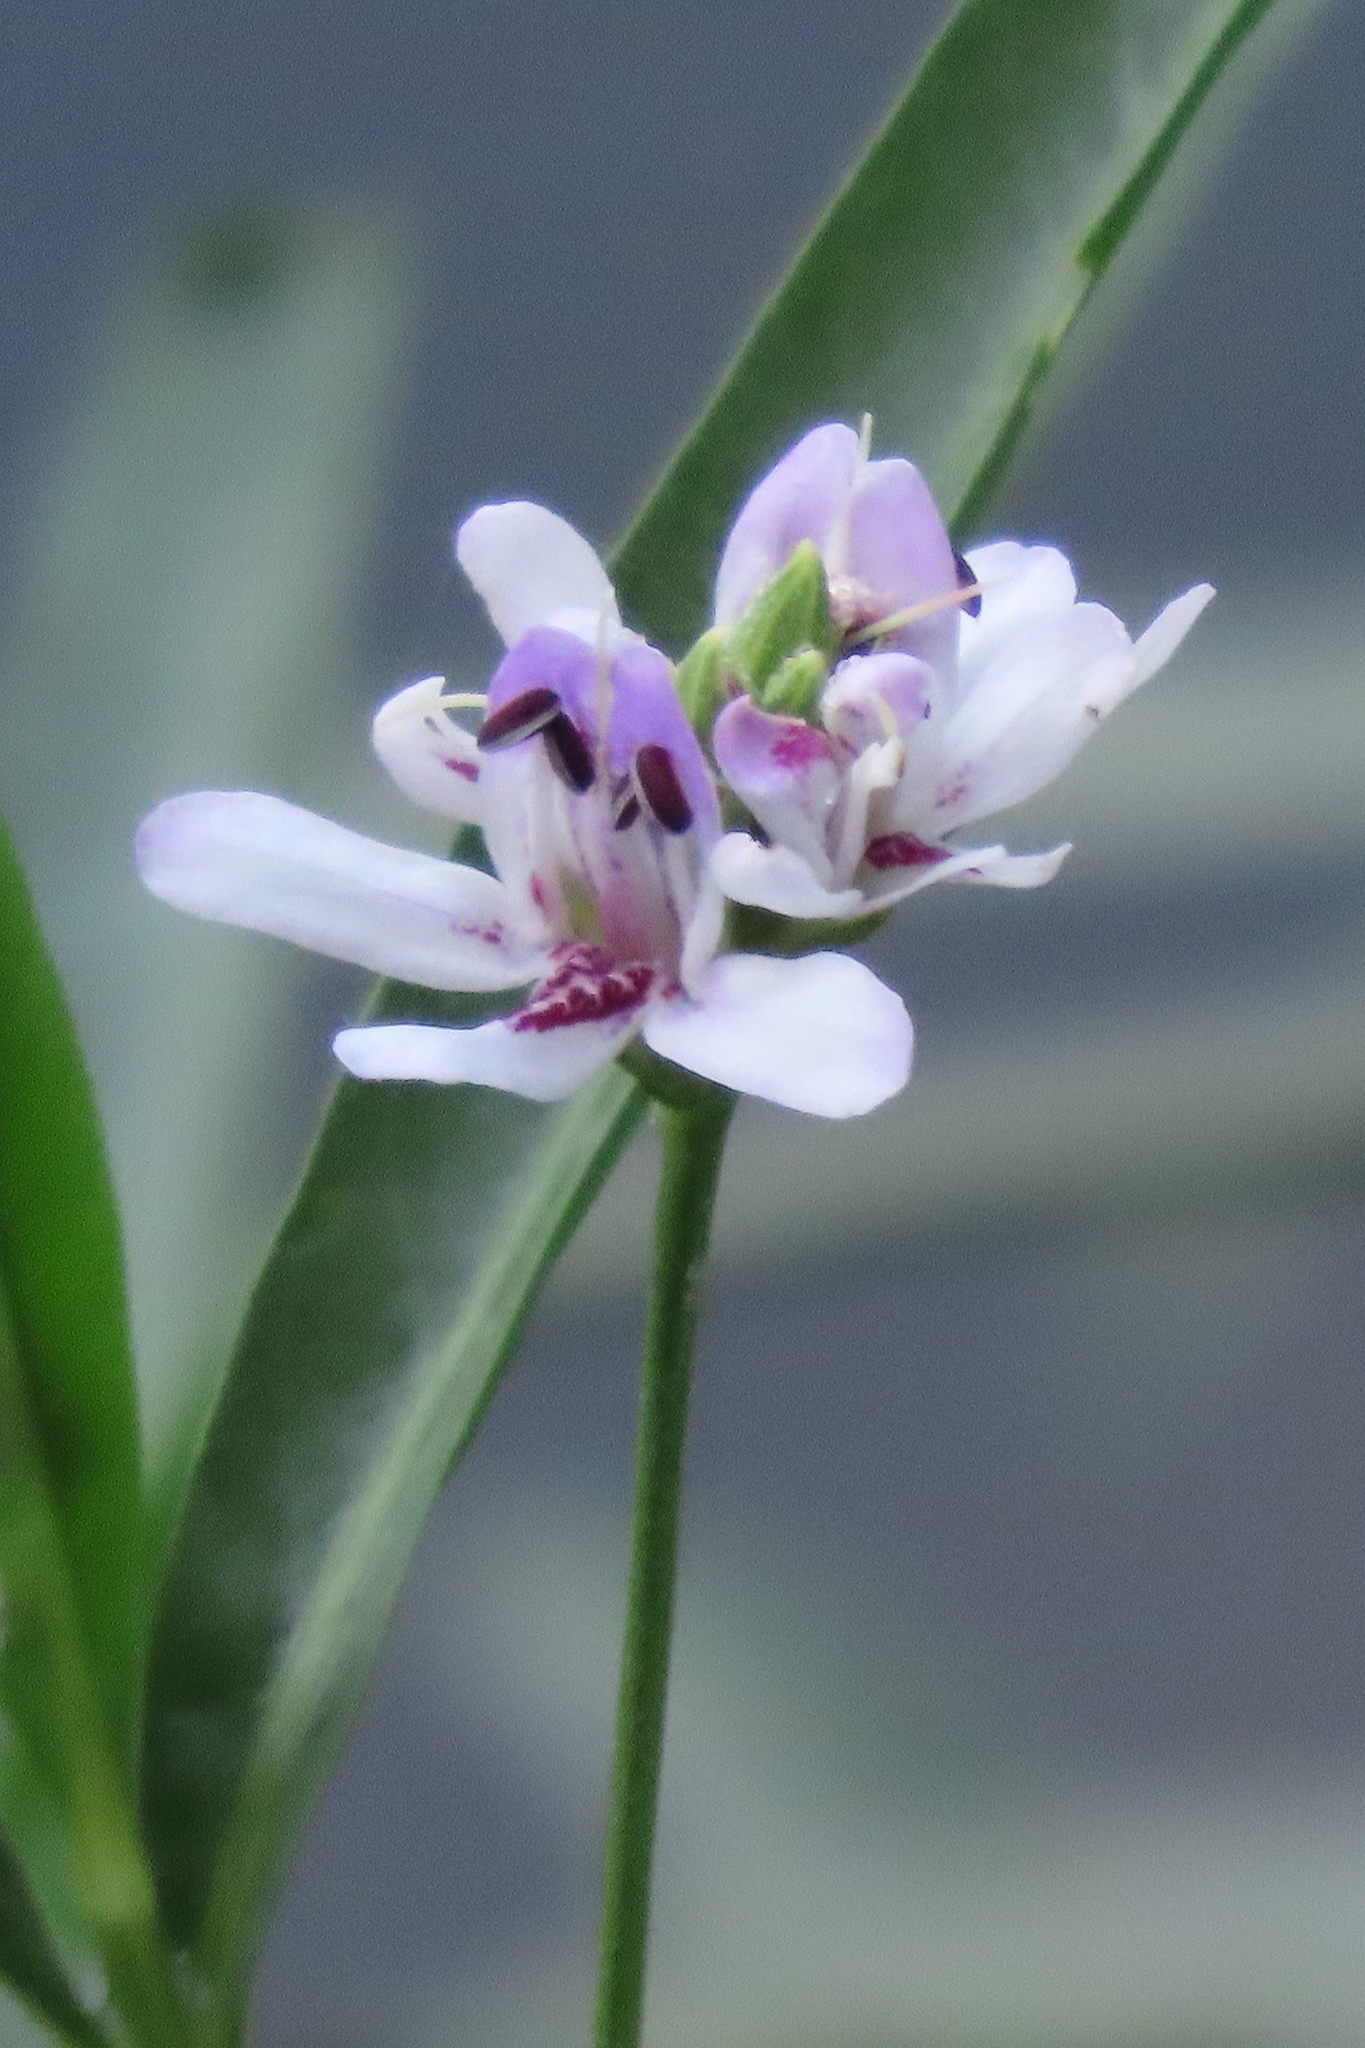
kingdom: Plantae
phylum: Tracheophyta
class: Magnoliopsida
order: Lamiales
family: Acanthaceae
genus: Dianthera
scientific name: Dianthera americana
